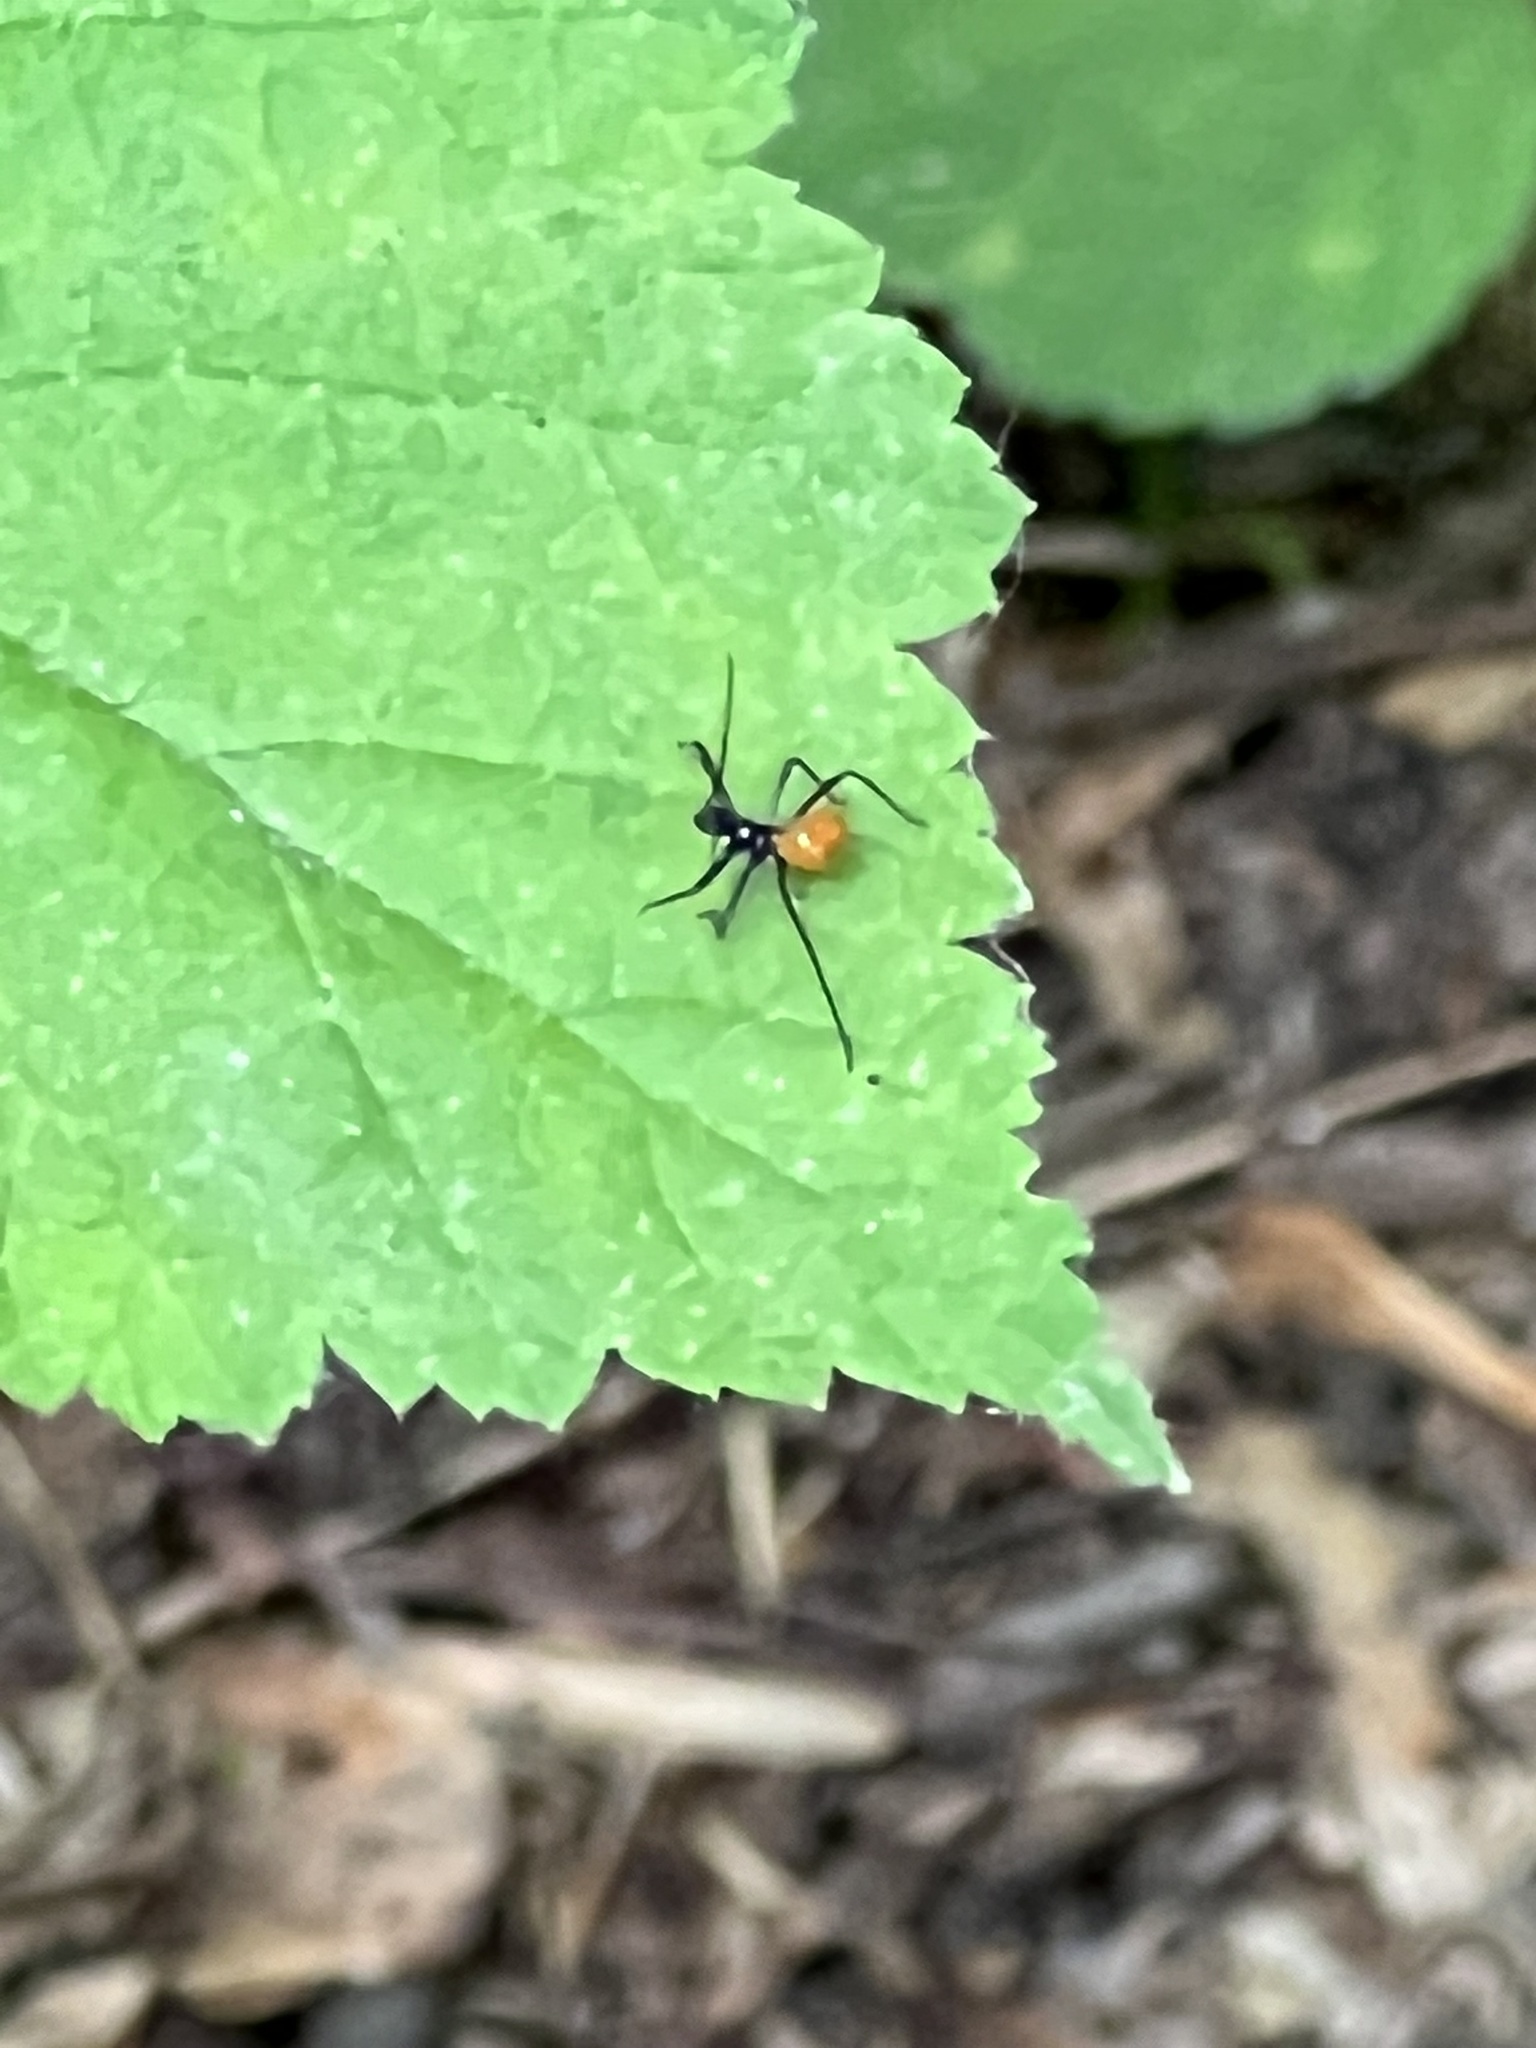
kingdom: Animalia
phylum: Arthropoda
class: Insecta
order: Hemiptera
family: Reduviidae
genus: Arilus
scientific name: Arilus cristatus
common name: North american wheel bug
